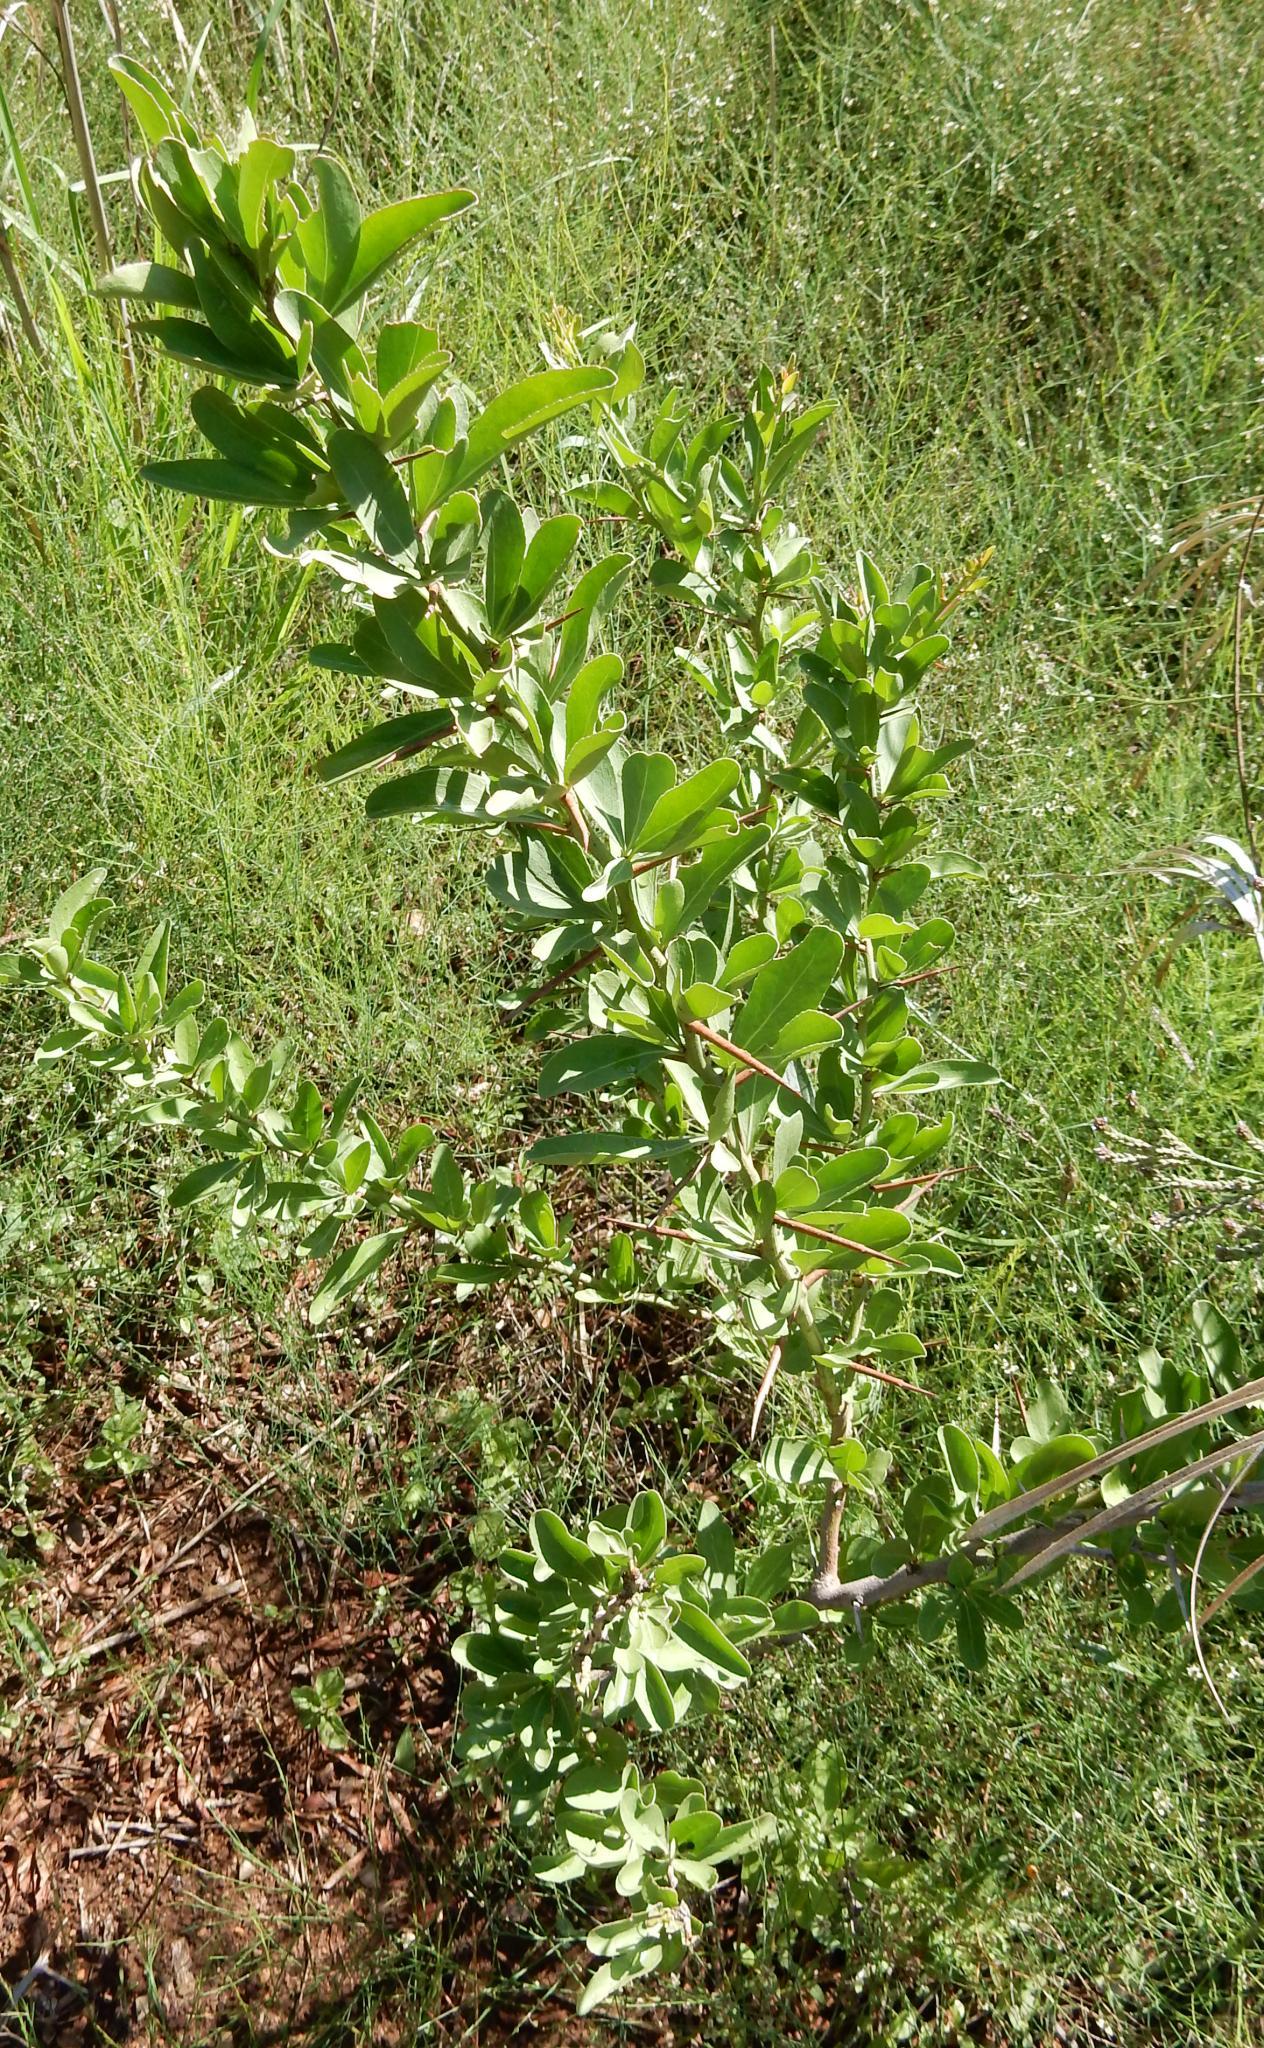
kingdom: Plantae
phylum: Tracheophyta
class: Magnoliopsida
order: Celastrales
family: Celastraceae
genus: Gymnosporia
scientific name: Gymnosporia buxifolia
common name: Common spike-thorn
